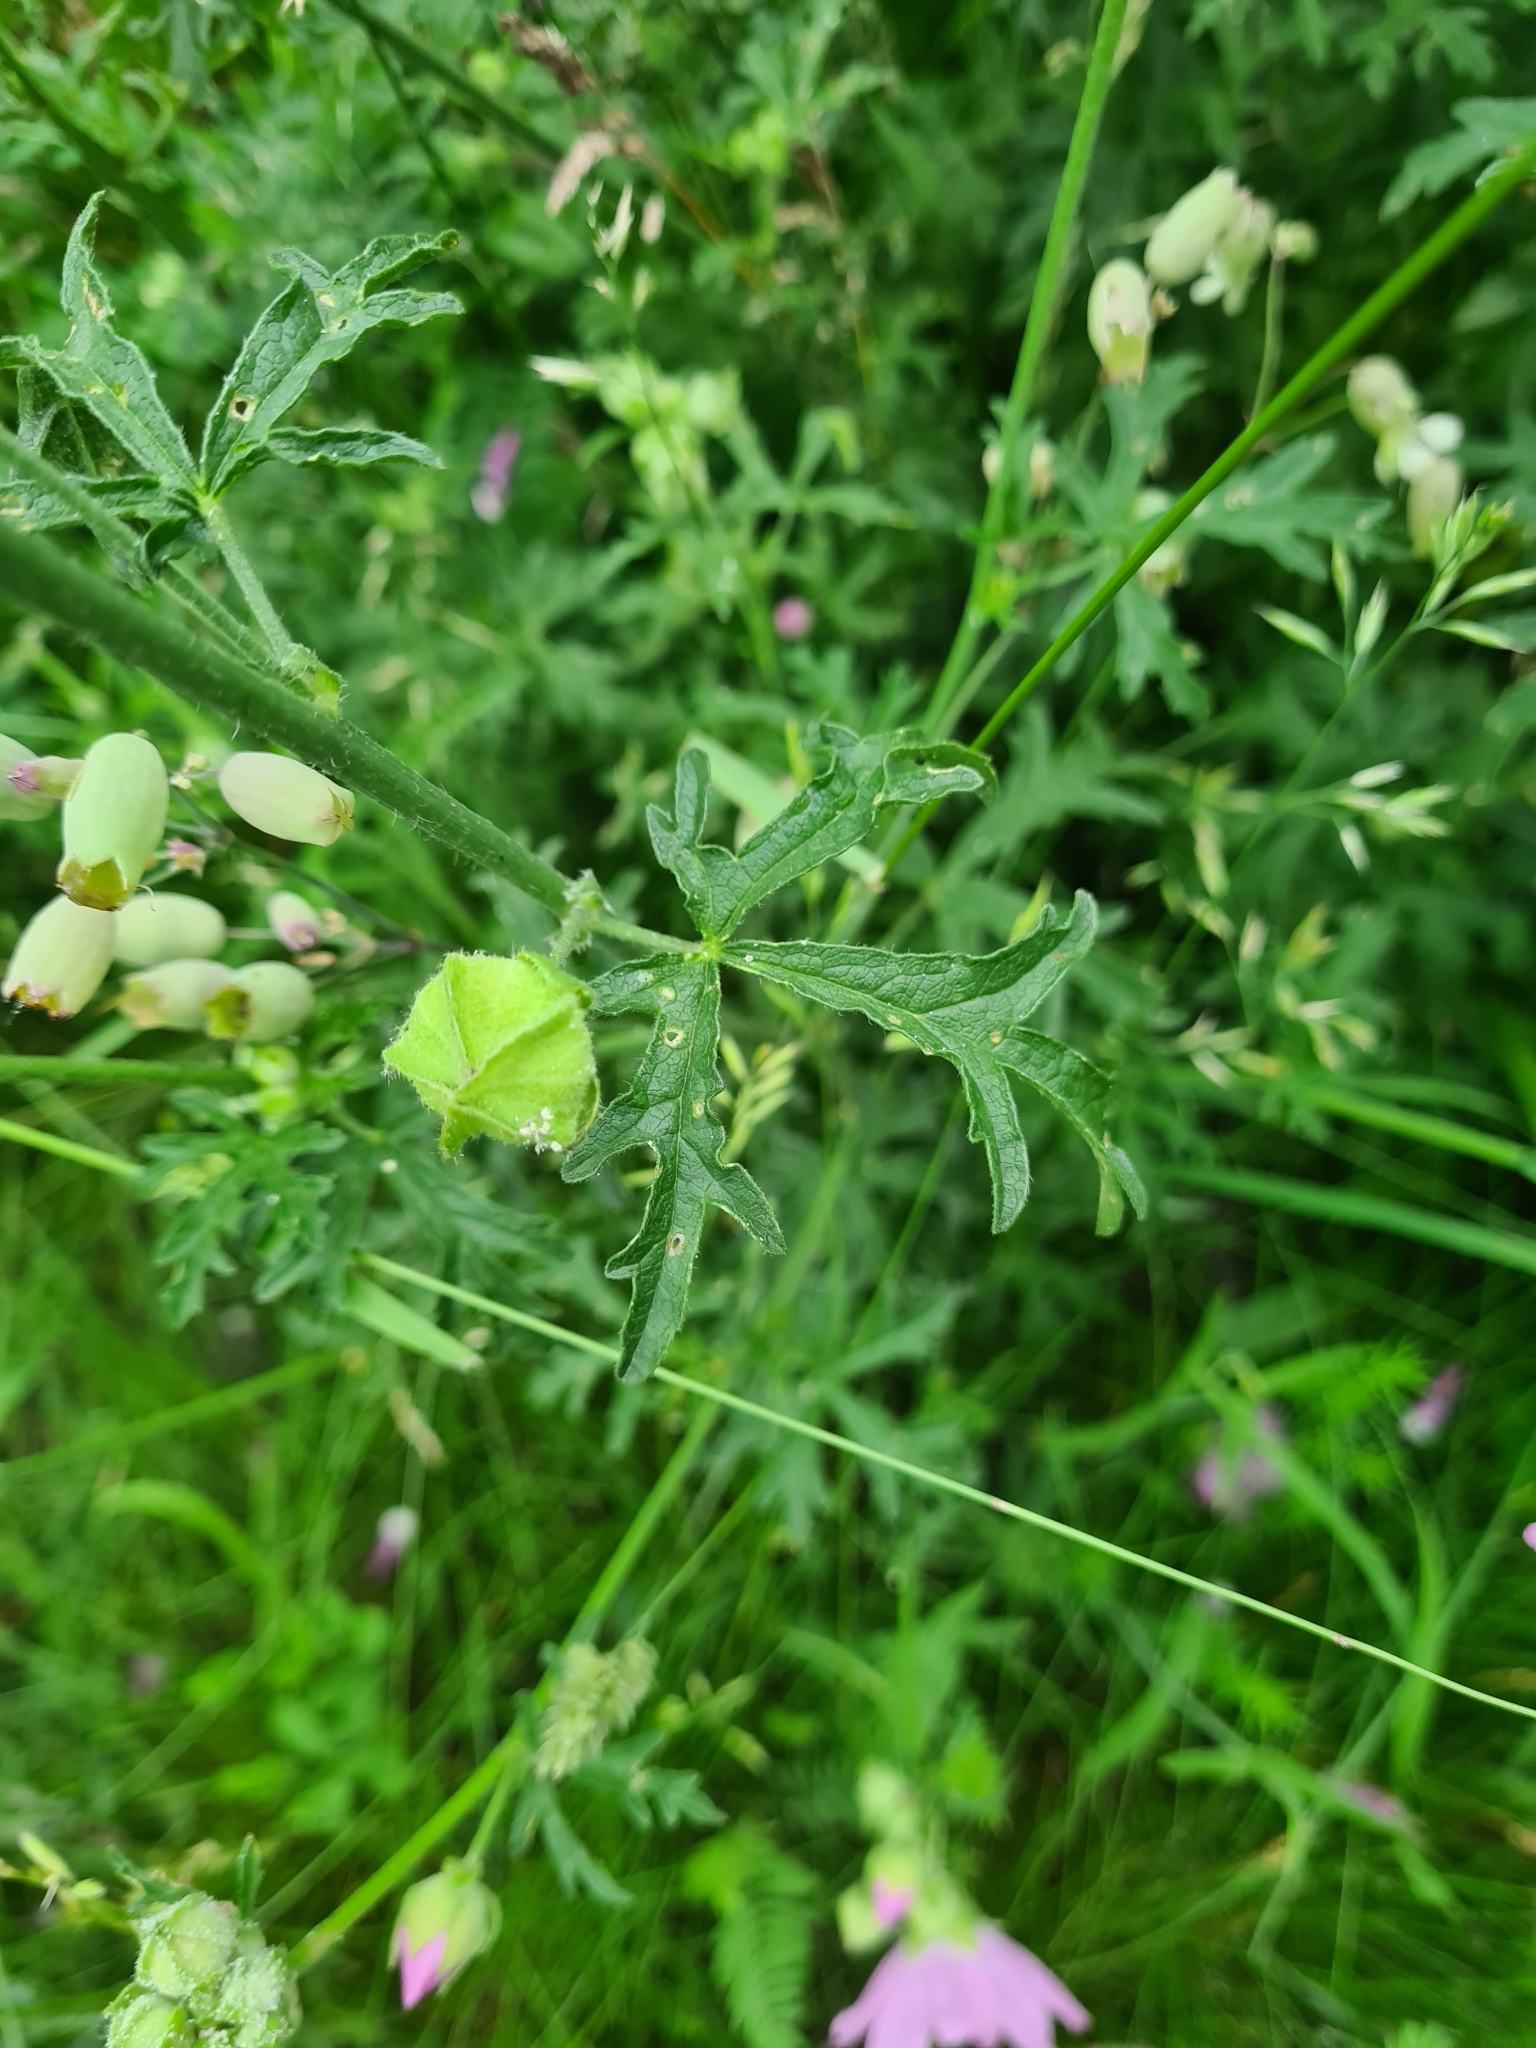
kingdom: Plantae
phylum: Tracheophyta
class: Magnoliopsida
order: Malvales
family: Malvaceae
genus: Malva
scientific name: Malva moschata
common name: Musk mallow
